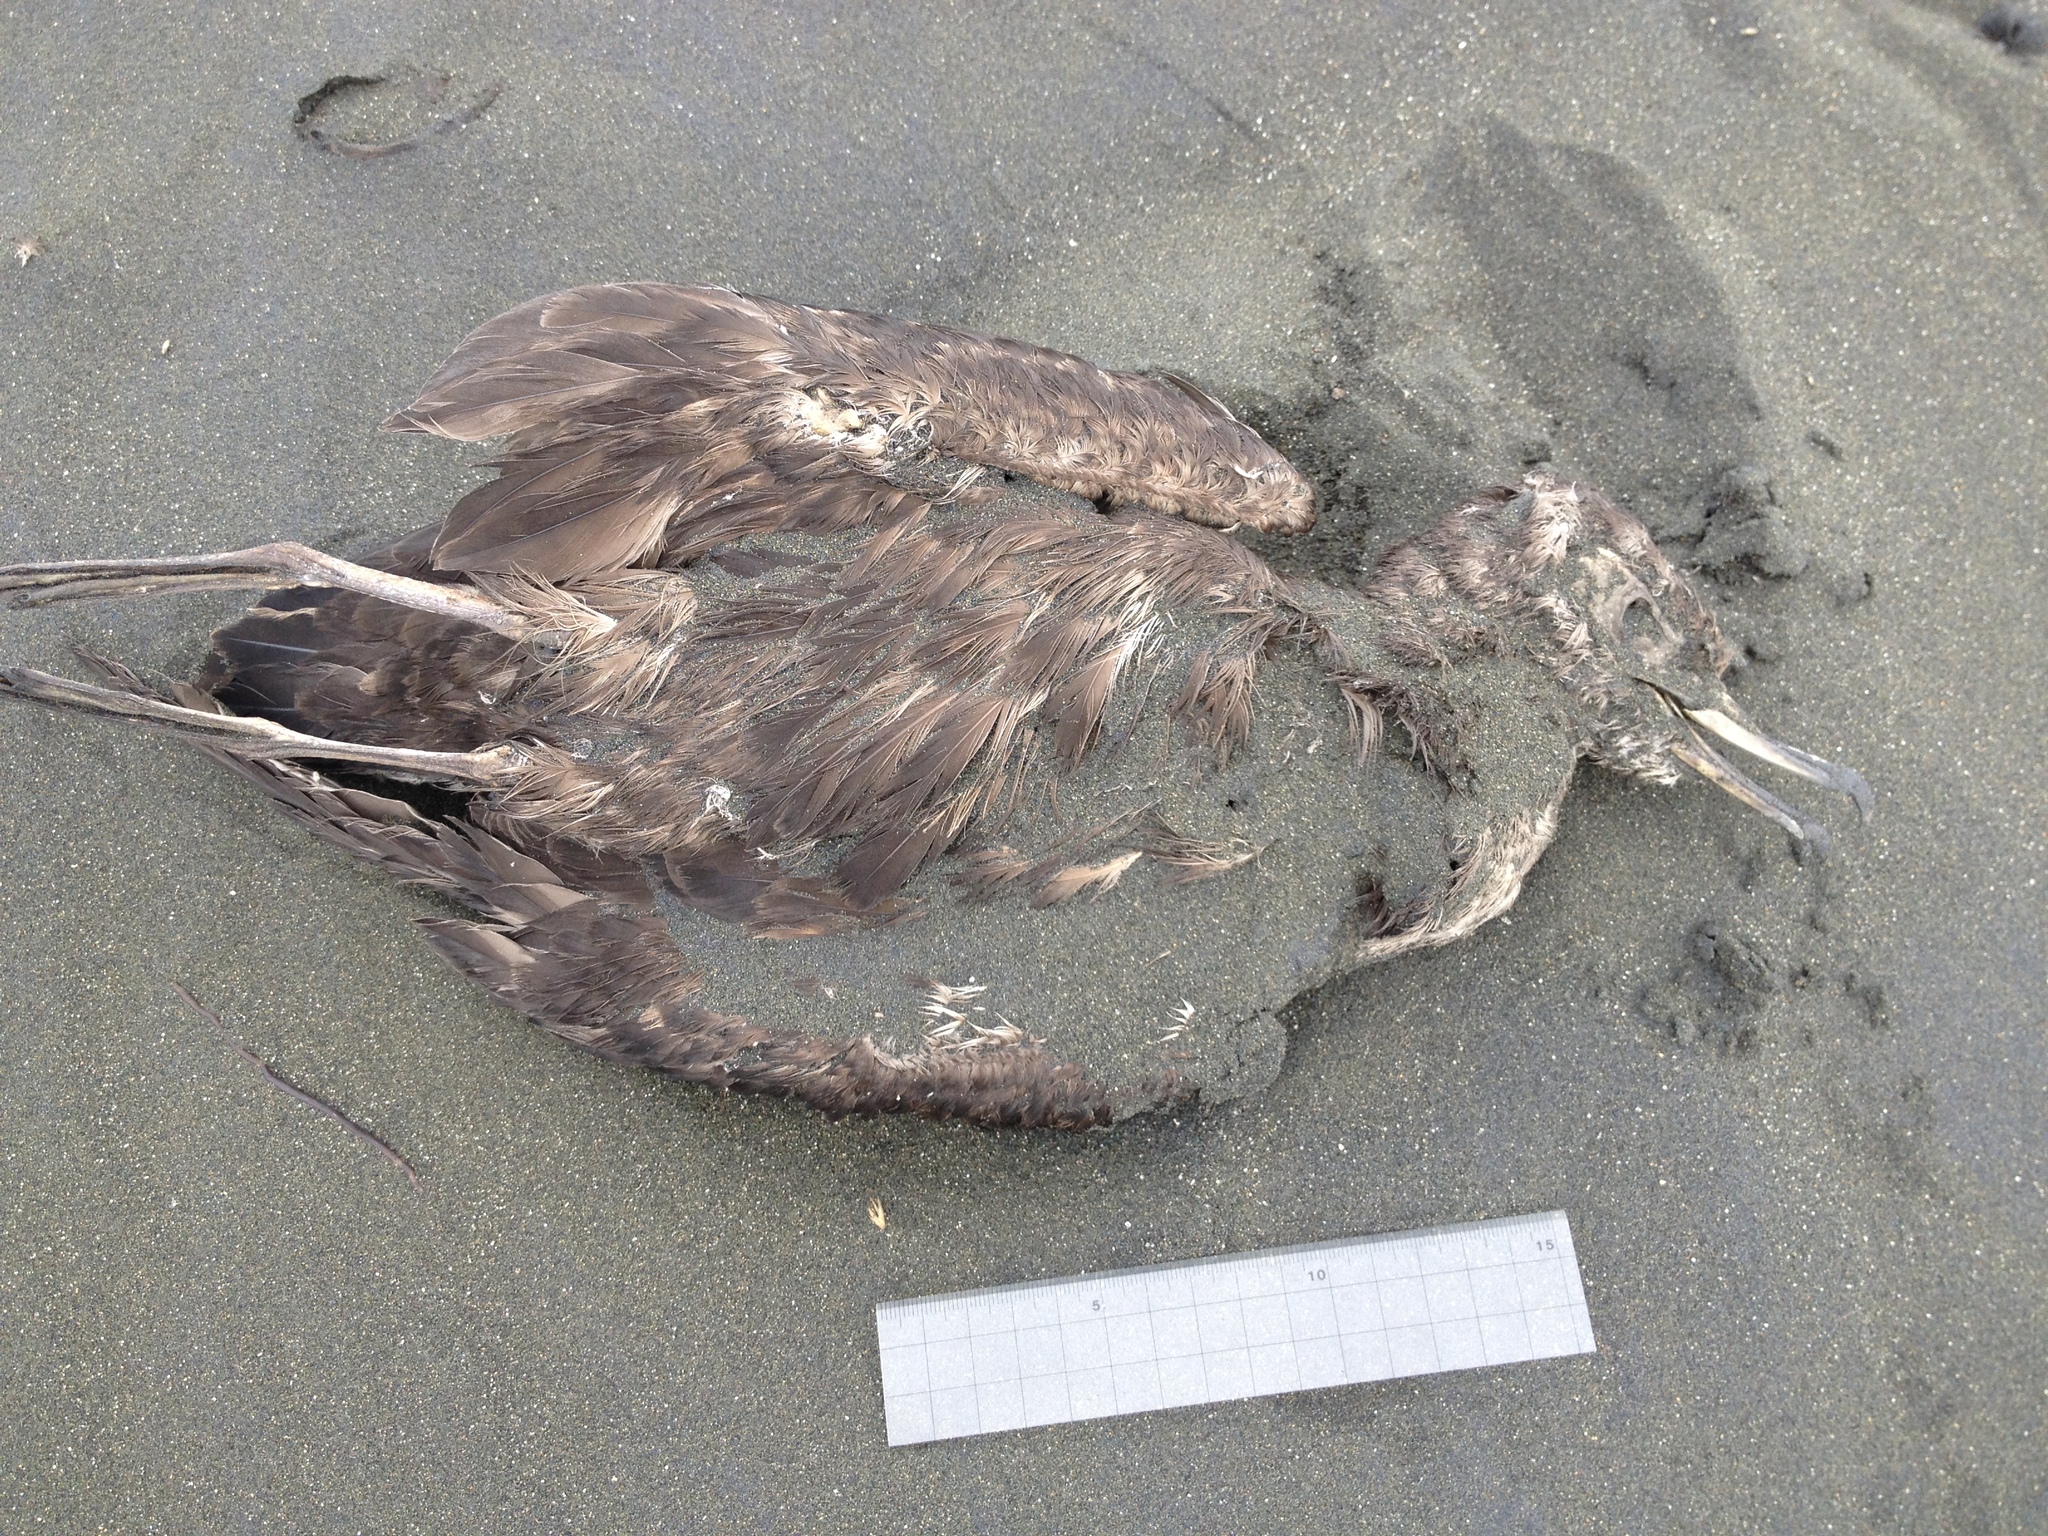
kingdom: Animalia
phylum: Chordata
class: Aves
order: Procellariiformes
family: Procellariidae
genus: Puffinus
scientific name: Puffinus bulleri
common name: Buller's shearwater
